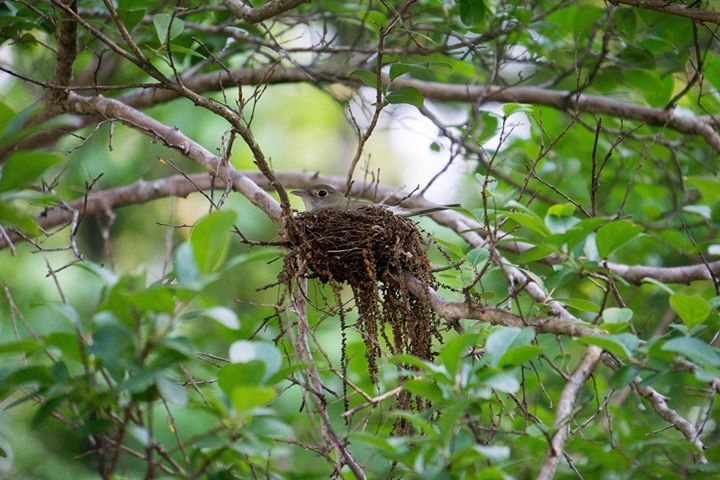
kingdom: Animalia
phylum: Chordata
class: Aves
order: Passeriformes
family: Tyrannidae
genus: Empidonax
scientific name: Empidonax virescens
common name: Acadian flycatcher
